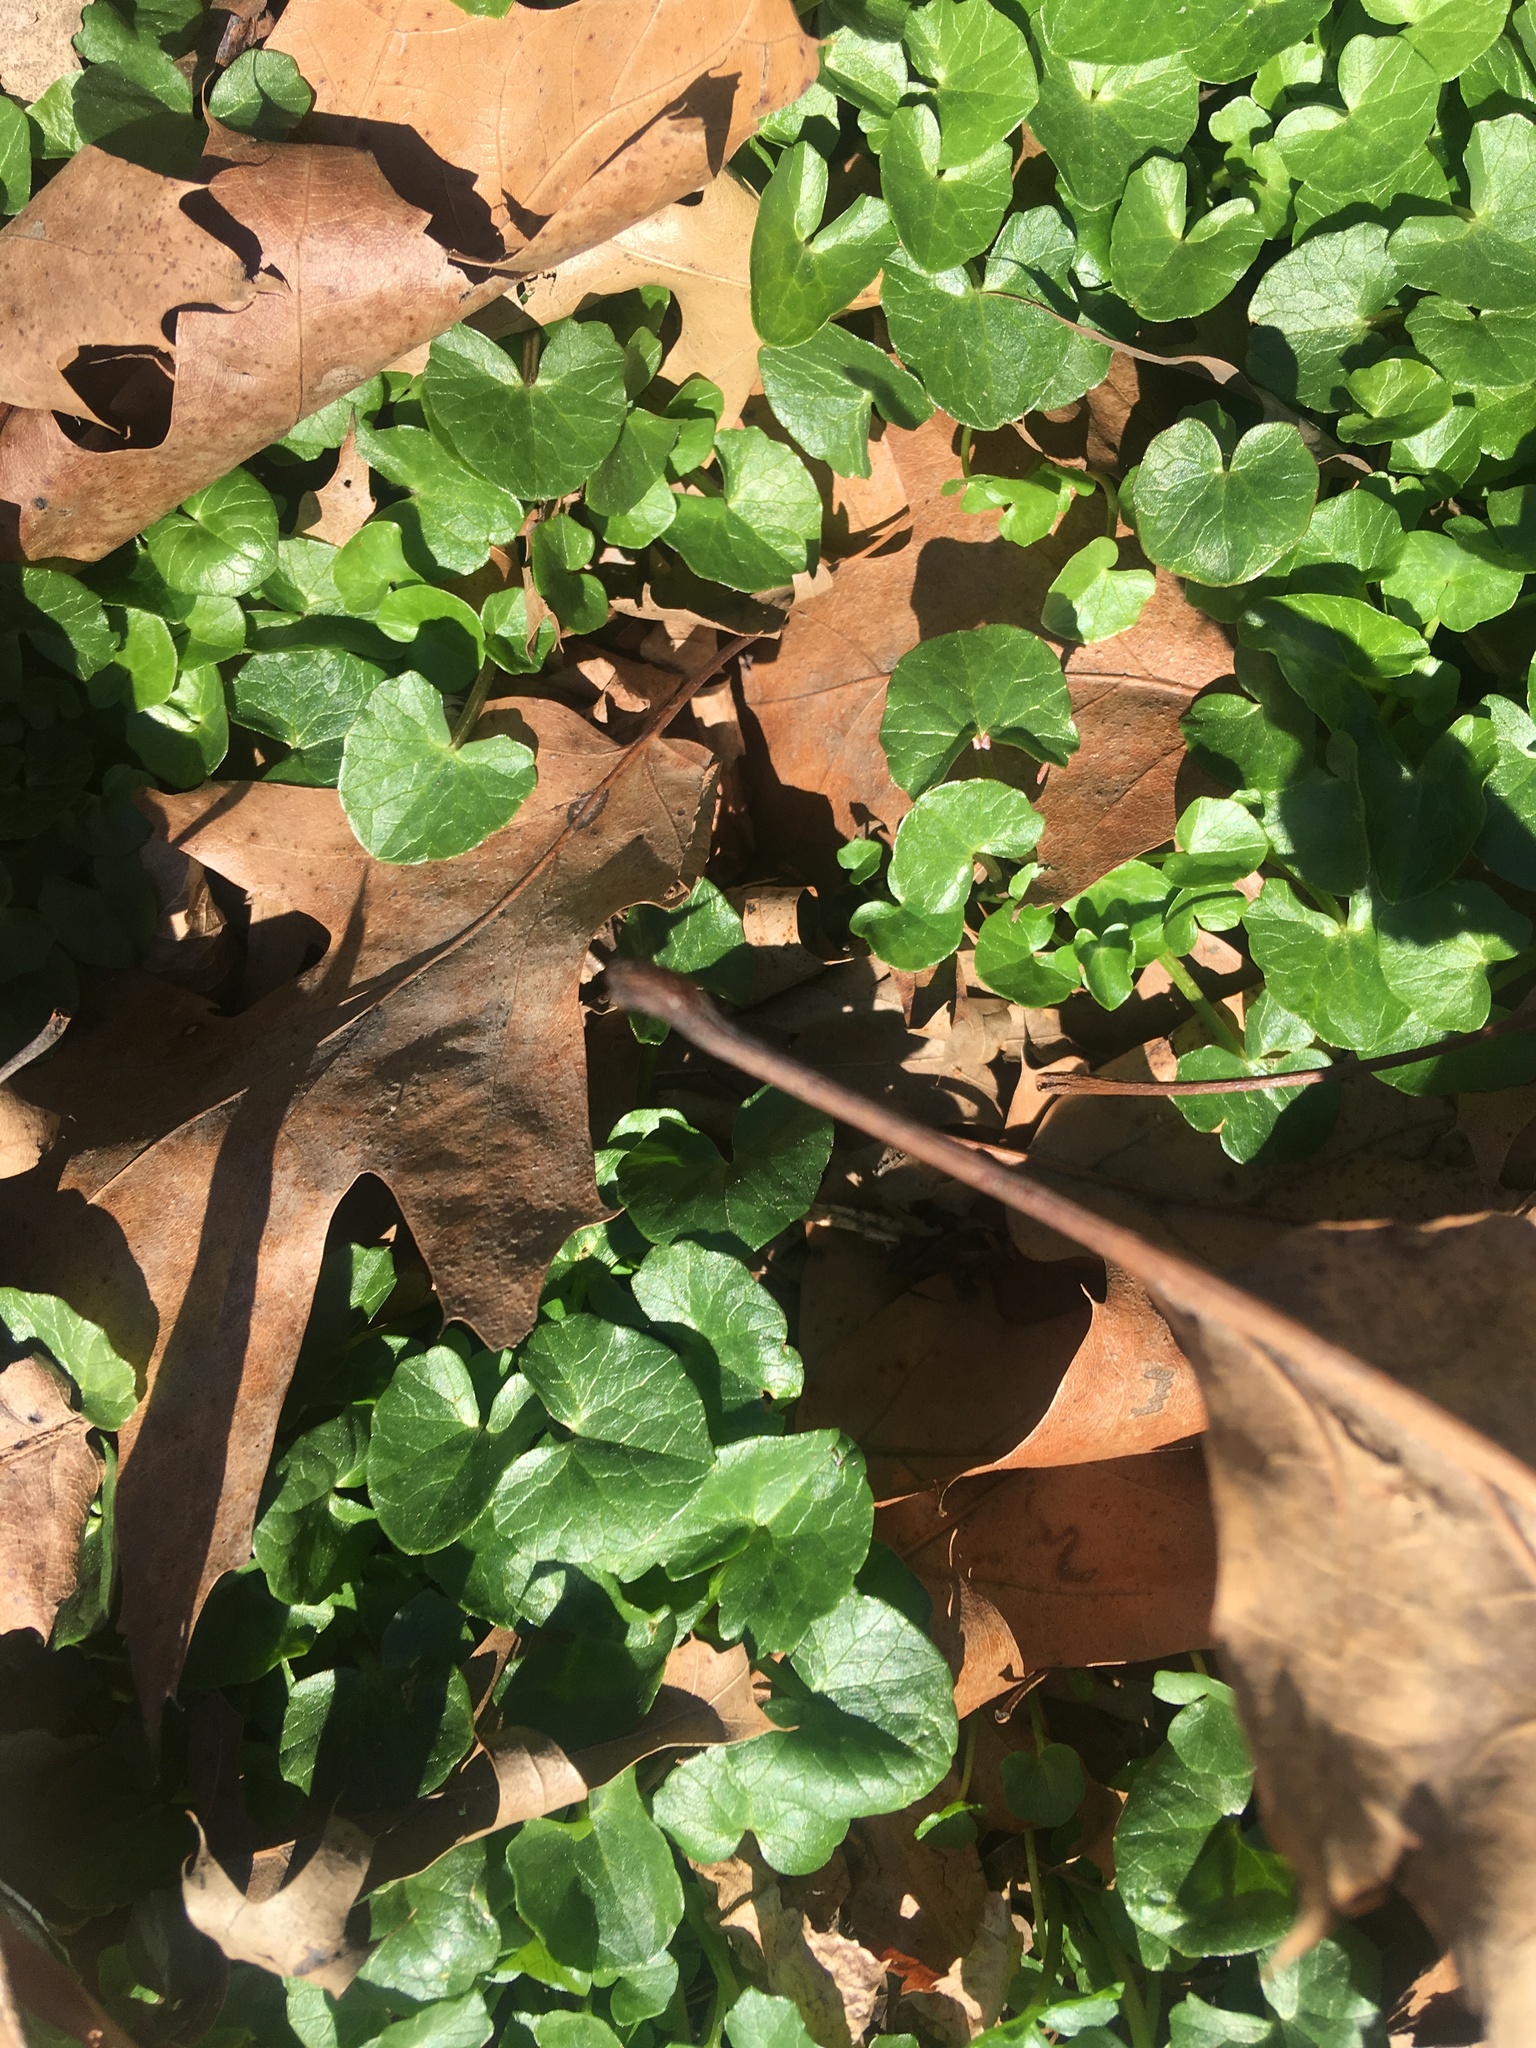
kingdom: Plantae
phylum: Tracheophyta
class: Magnoliopsida
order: Ranunculales
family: Ranunculaceae
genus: Ficaria
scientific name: Ficaria verna
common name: Lesser celandine
